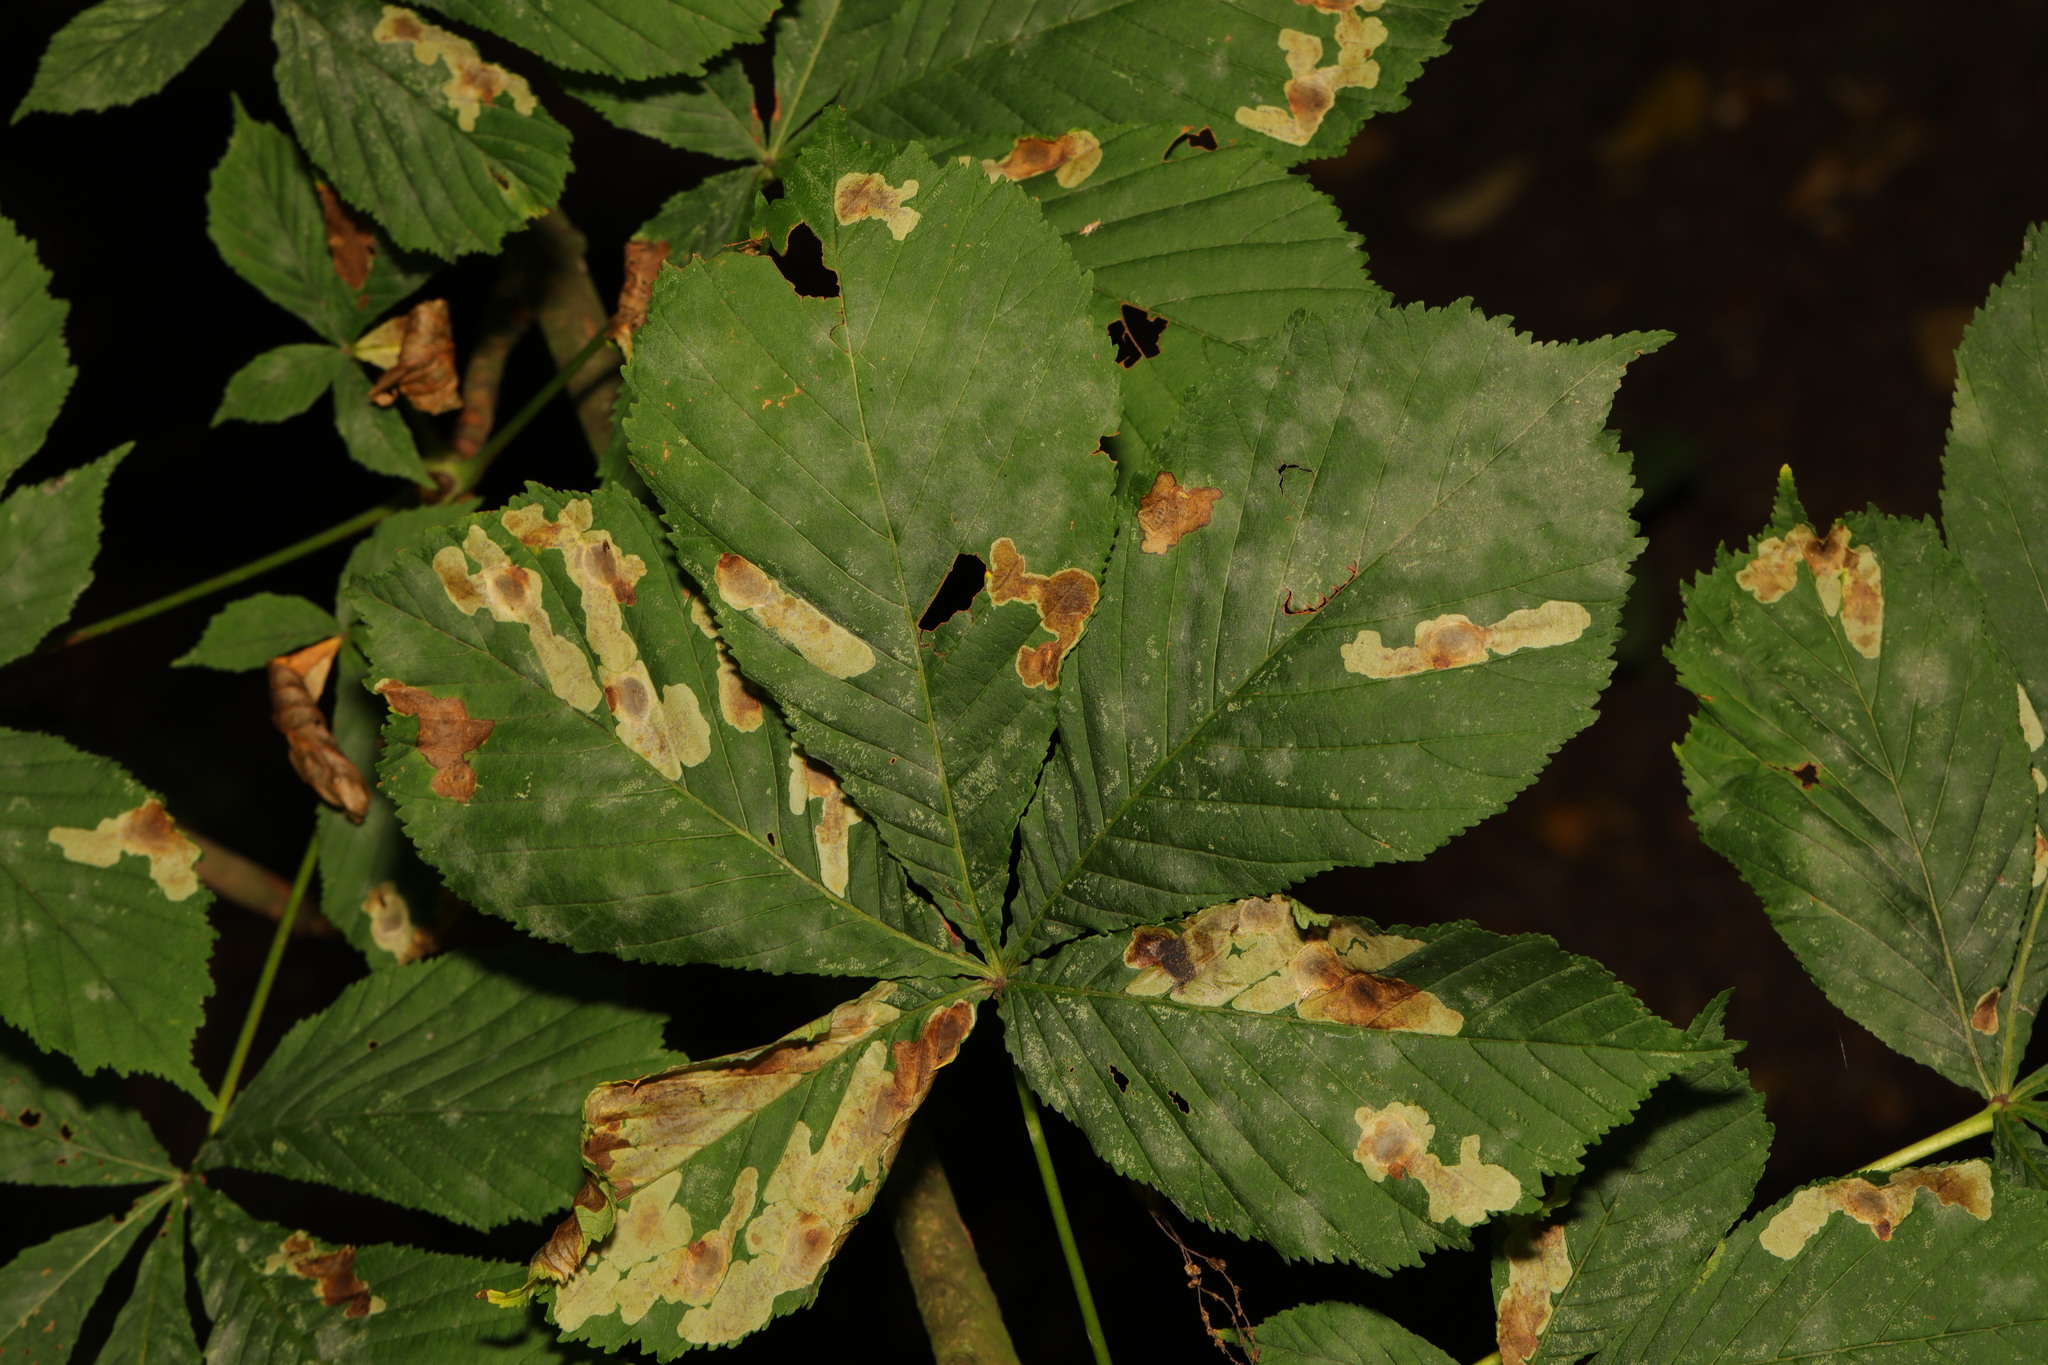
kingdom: Plantae
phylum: Tracheophyta
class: Magnoliopsida
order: Sapindales
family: Sapindaceae
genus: Aesculus
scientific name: Aesculus hippocastanum
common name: Horse-chestnut
